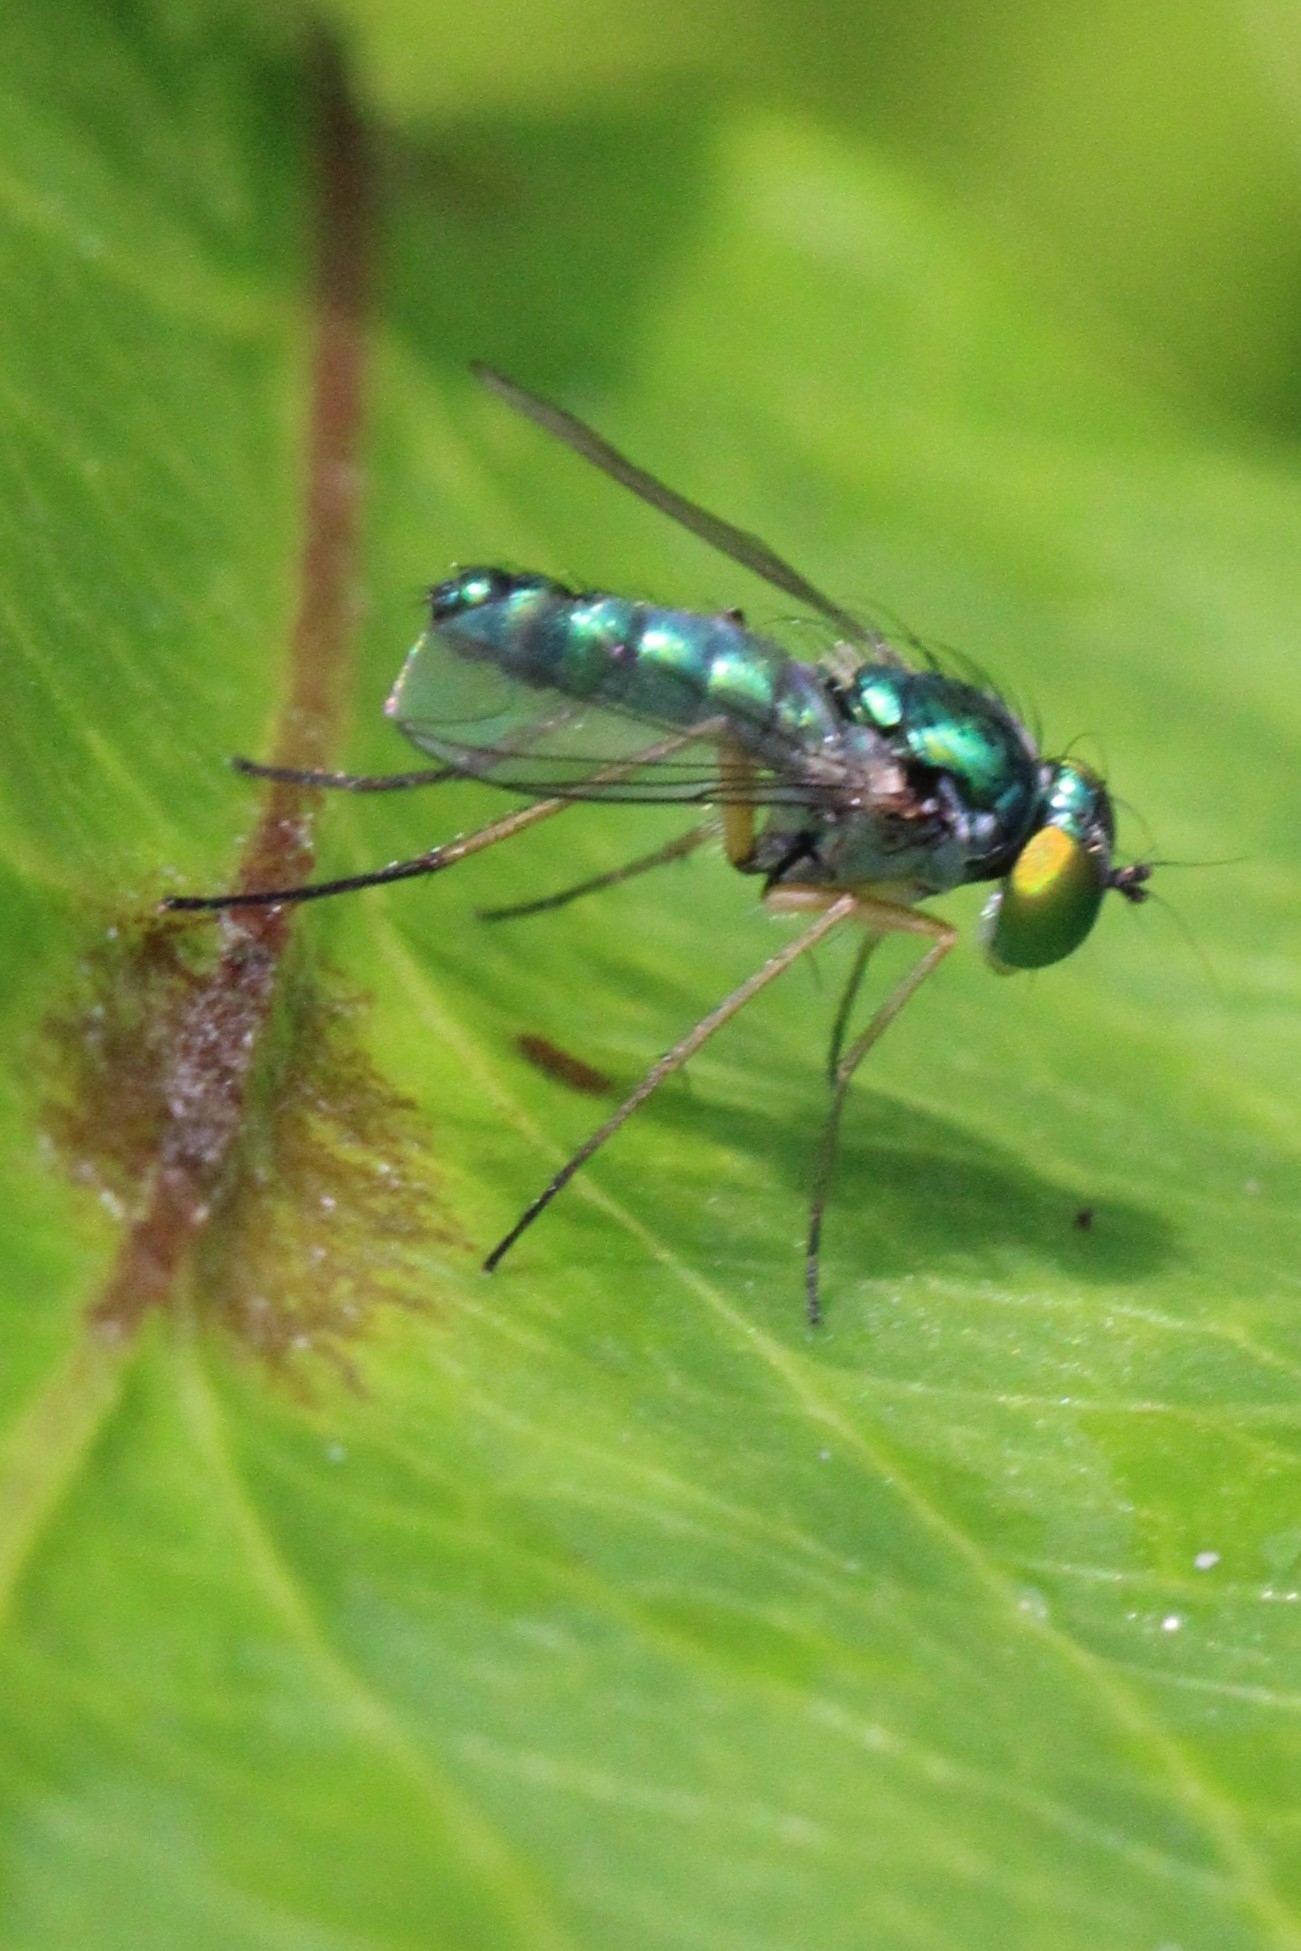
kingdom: Animalia
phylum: Arthropoda
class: Insecta
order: Diptera
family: Dolichopodidae
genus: Condylostylus
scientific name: Condylostylus flavipes
